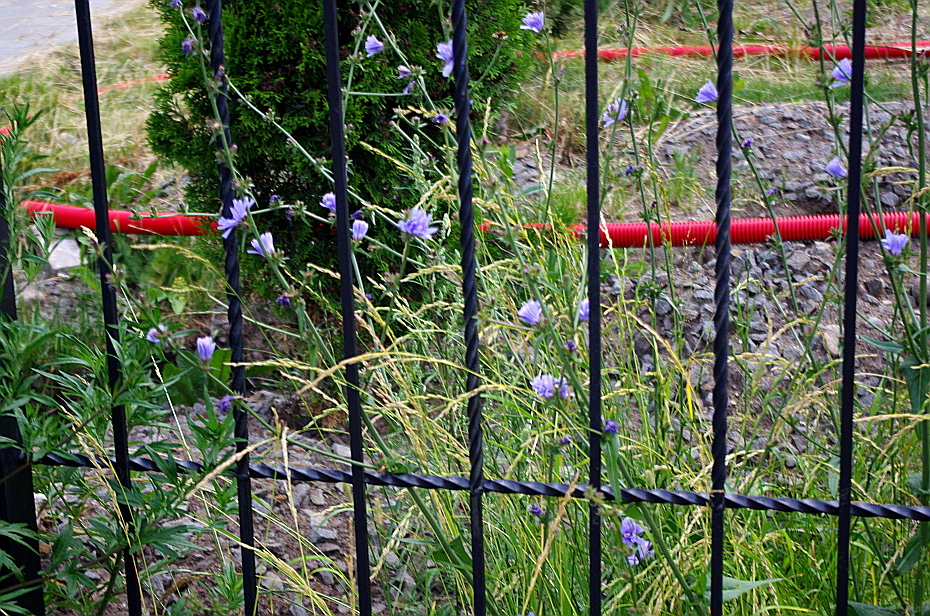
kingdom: Plantae
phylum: Tracheophyta
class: Magnoliopsida
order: Asterales
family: Asteraceae
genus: Cichorium
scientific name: Cichorium intybus
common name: Chicory
